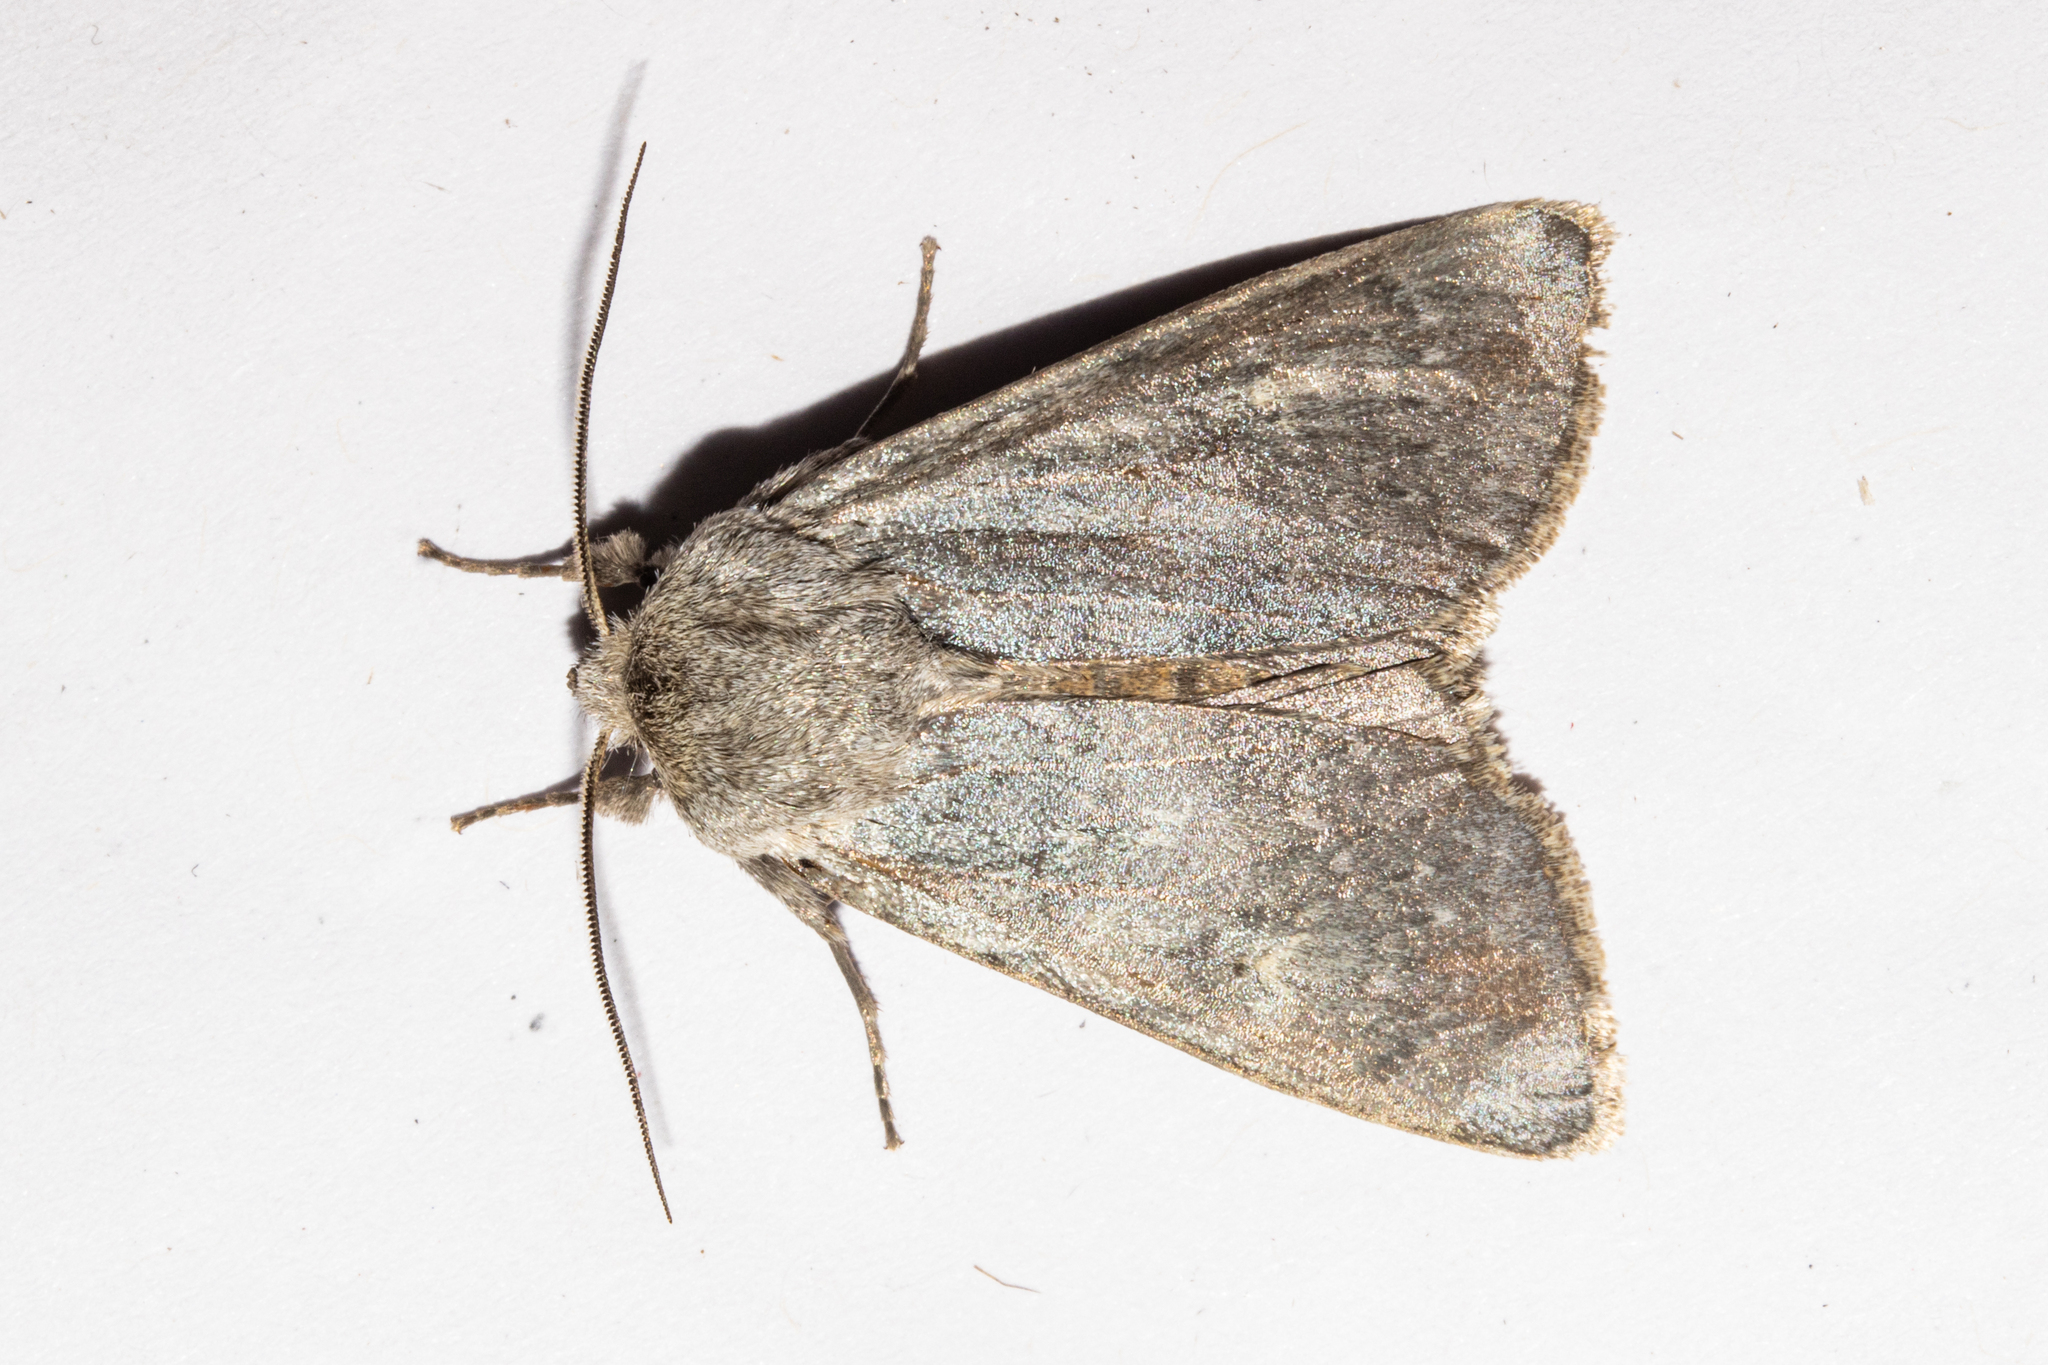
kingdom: Animalia
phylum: Arthropoda
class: Insecta
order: Lepidoptera
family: Noctuidae
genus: Ichneutica
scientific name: Ichneutica
